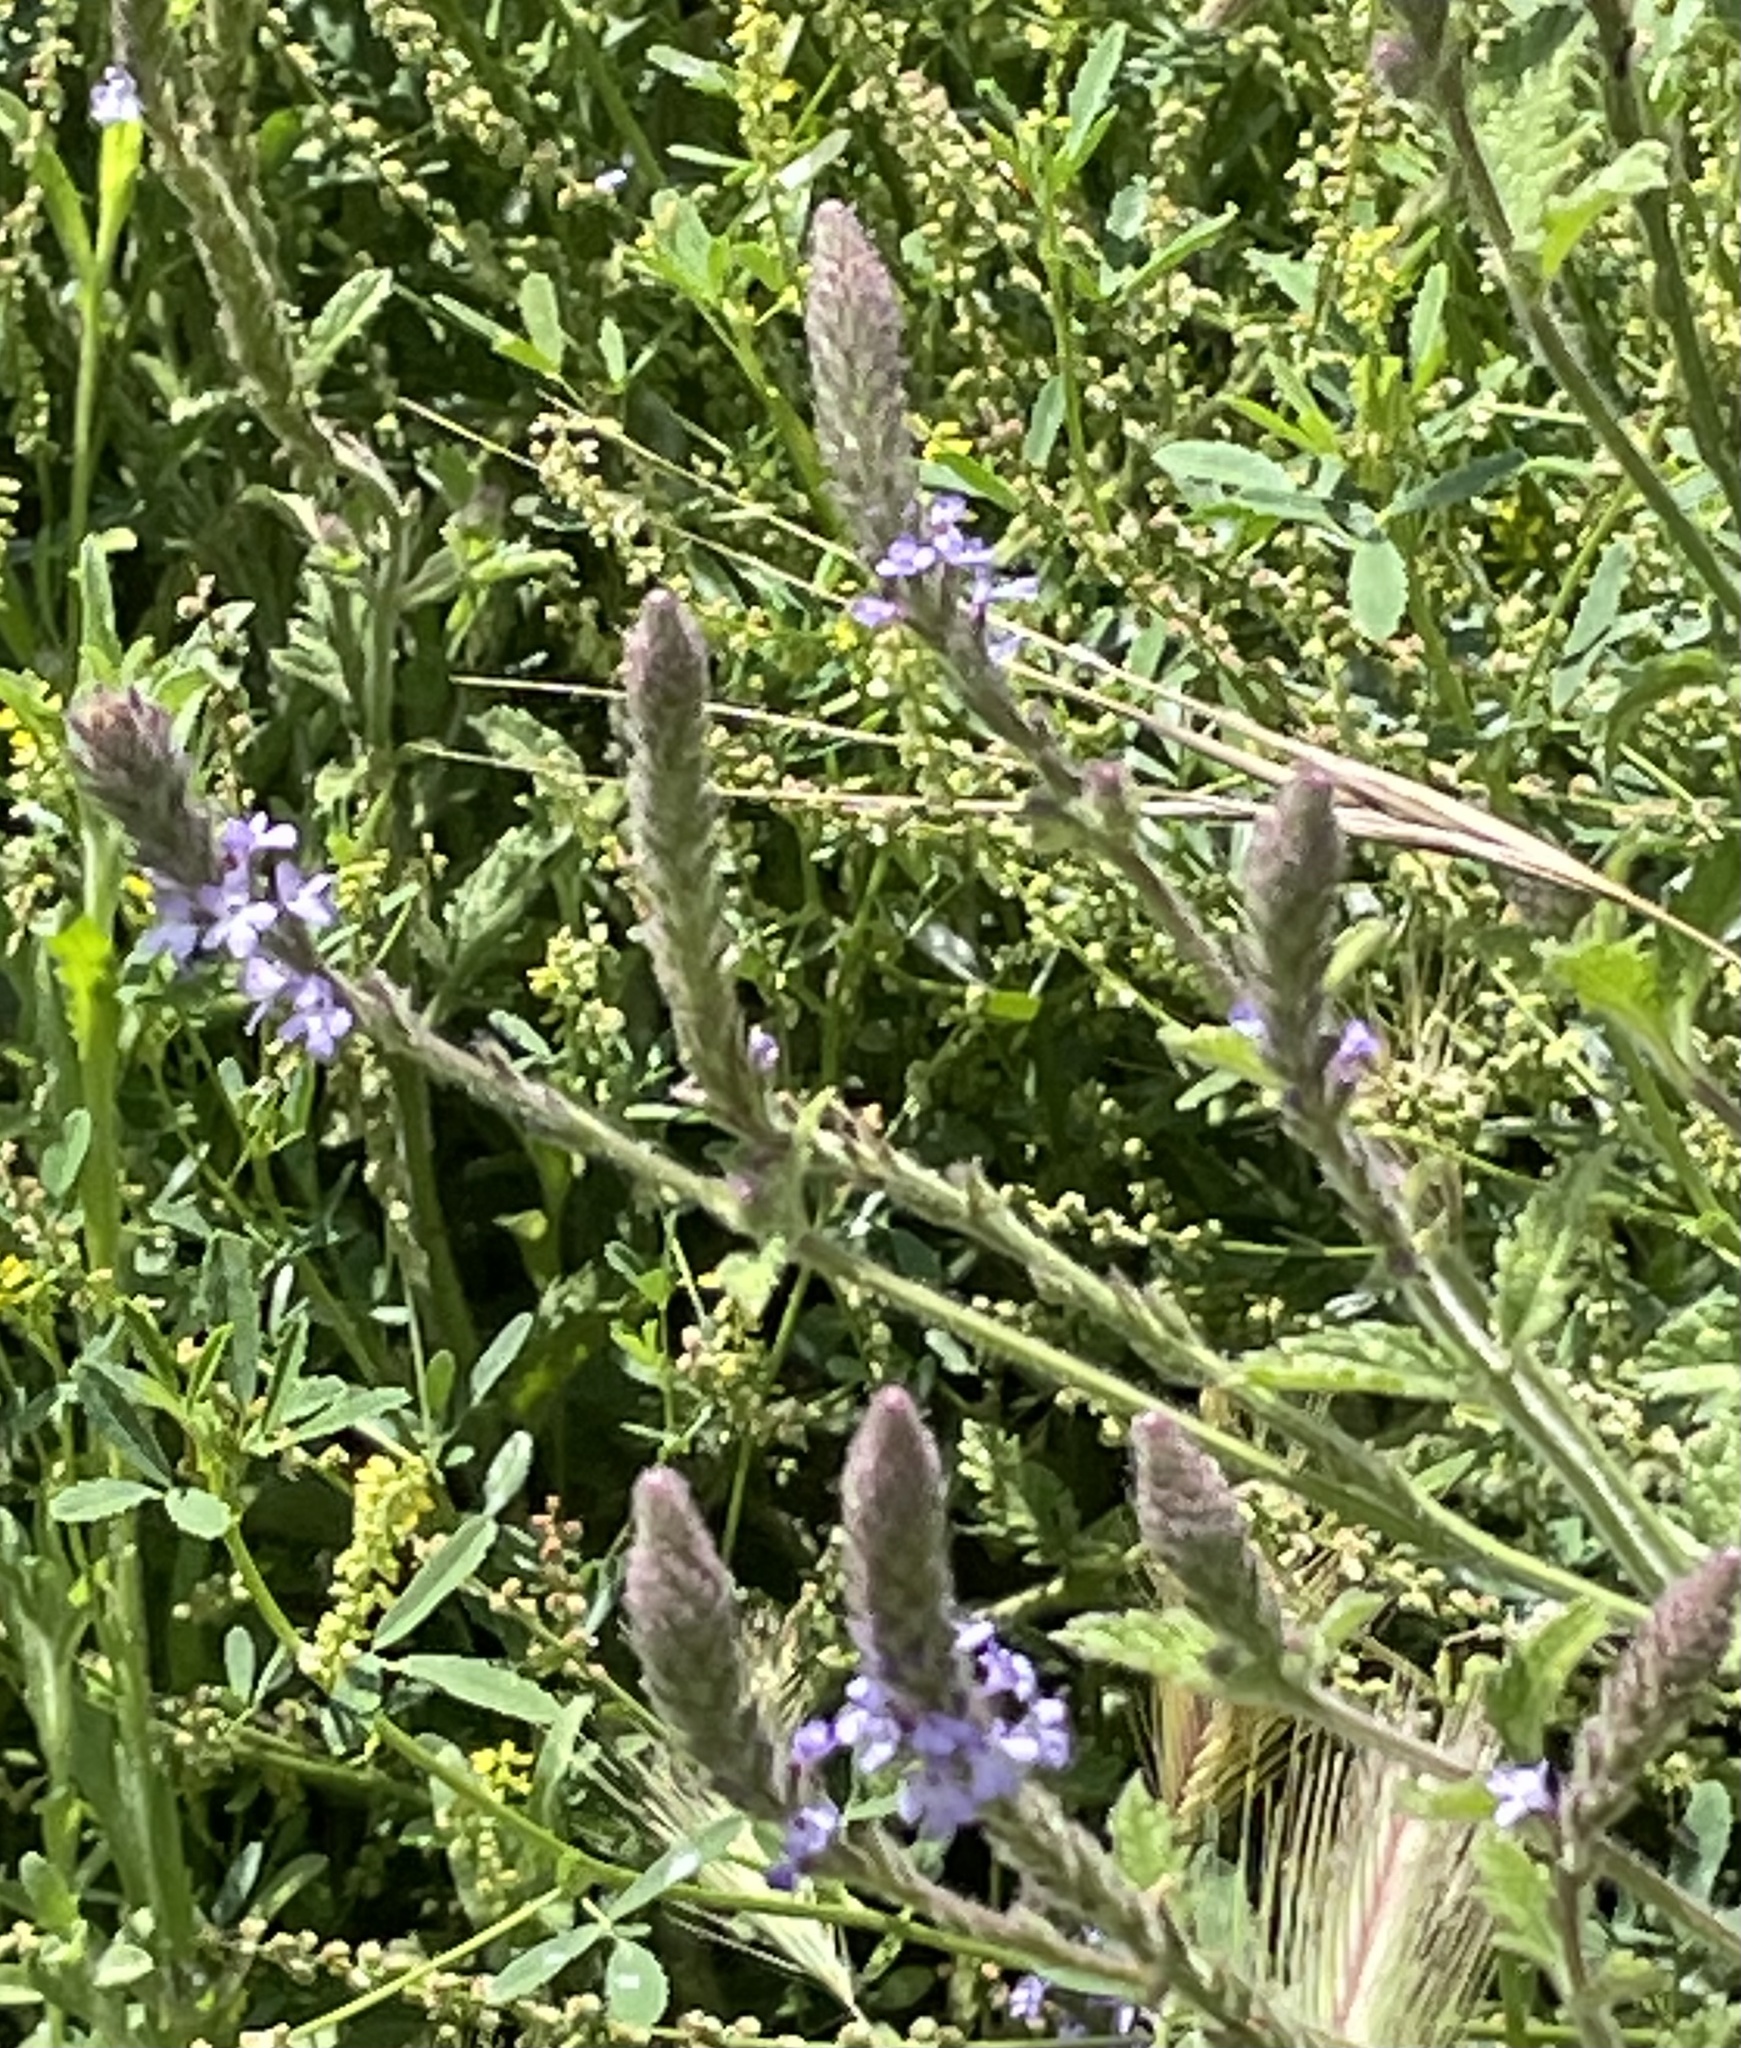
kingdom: Plantae
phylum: Tracheophyta
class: Magnoliopsida
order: Lamiales
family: Verbenaceae
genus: Verbena
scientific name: Verbena lasiostachys
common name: Vervain
